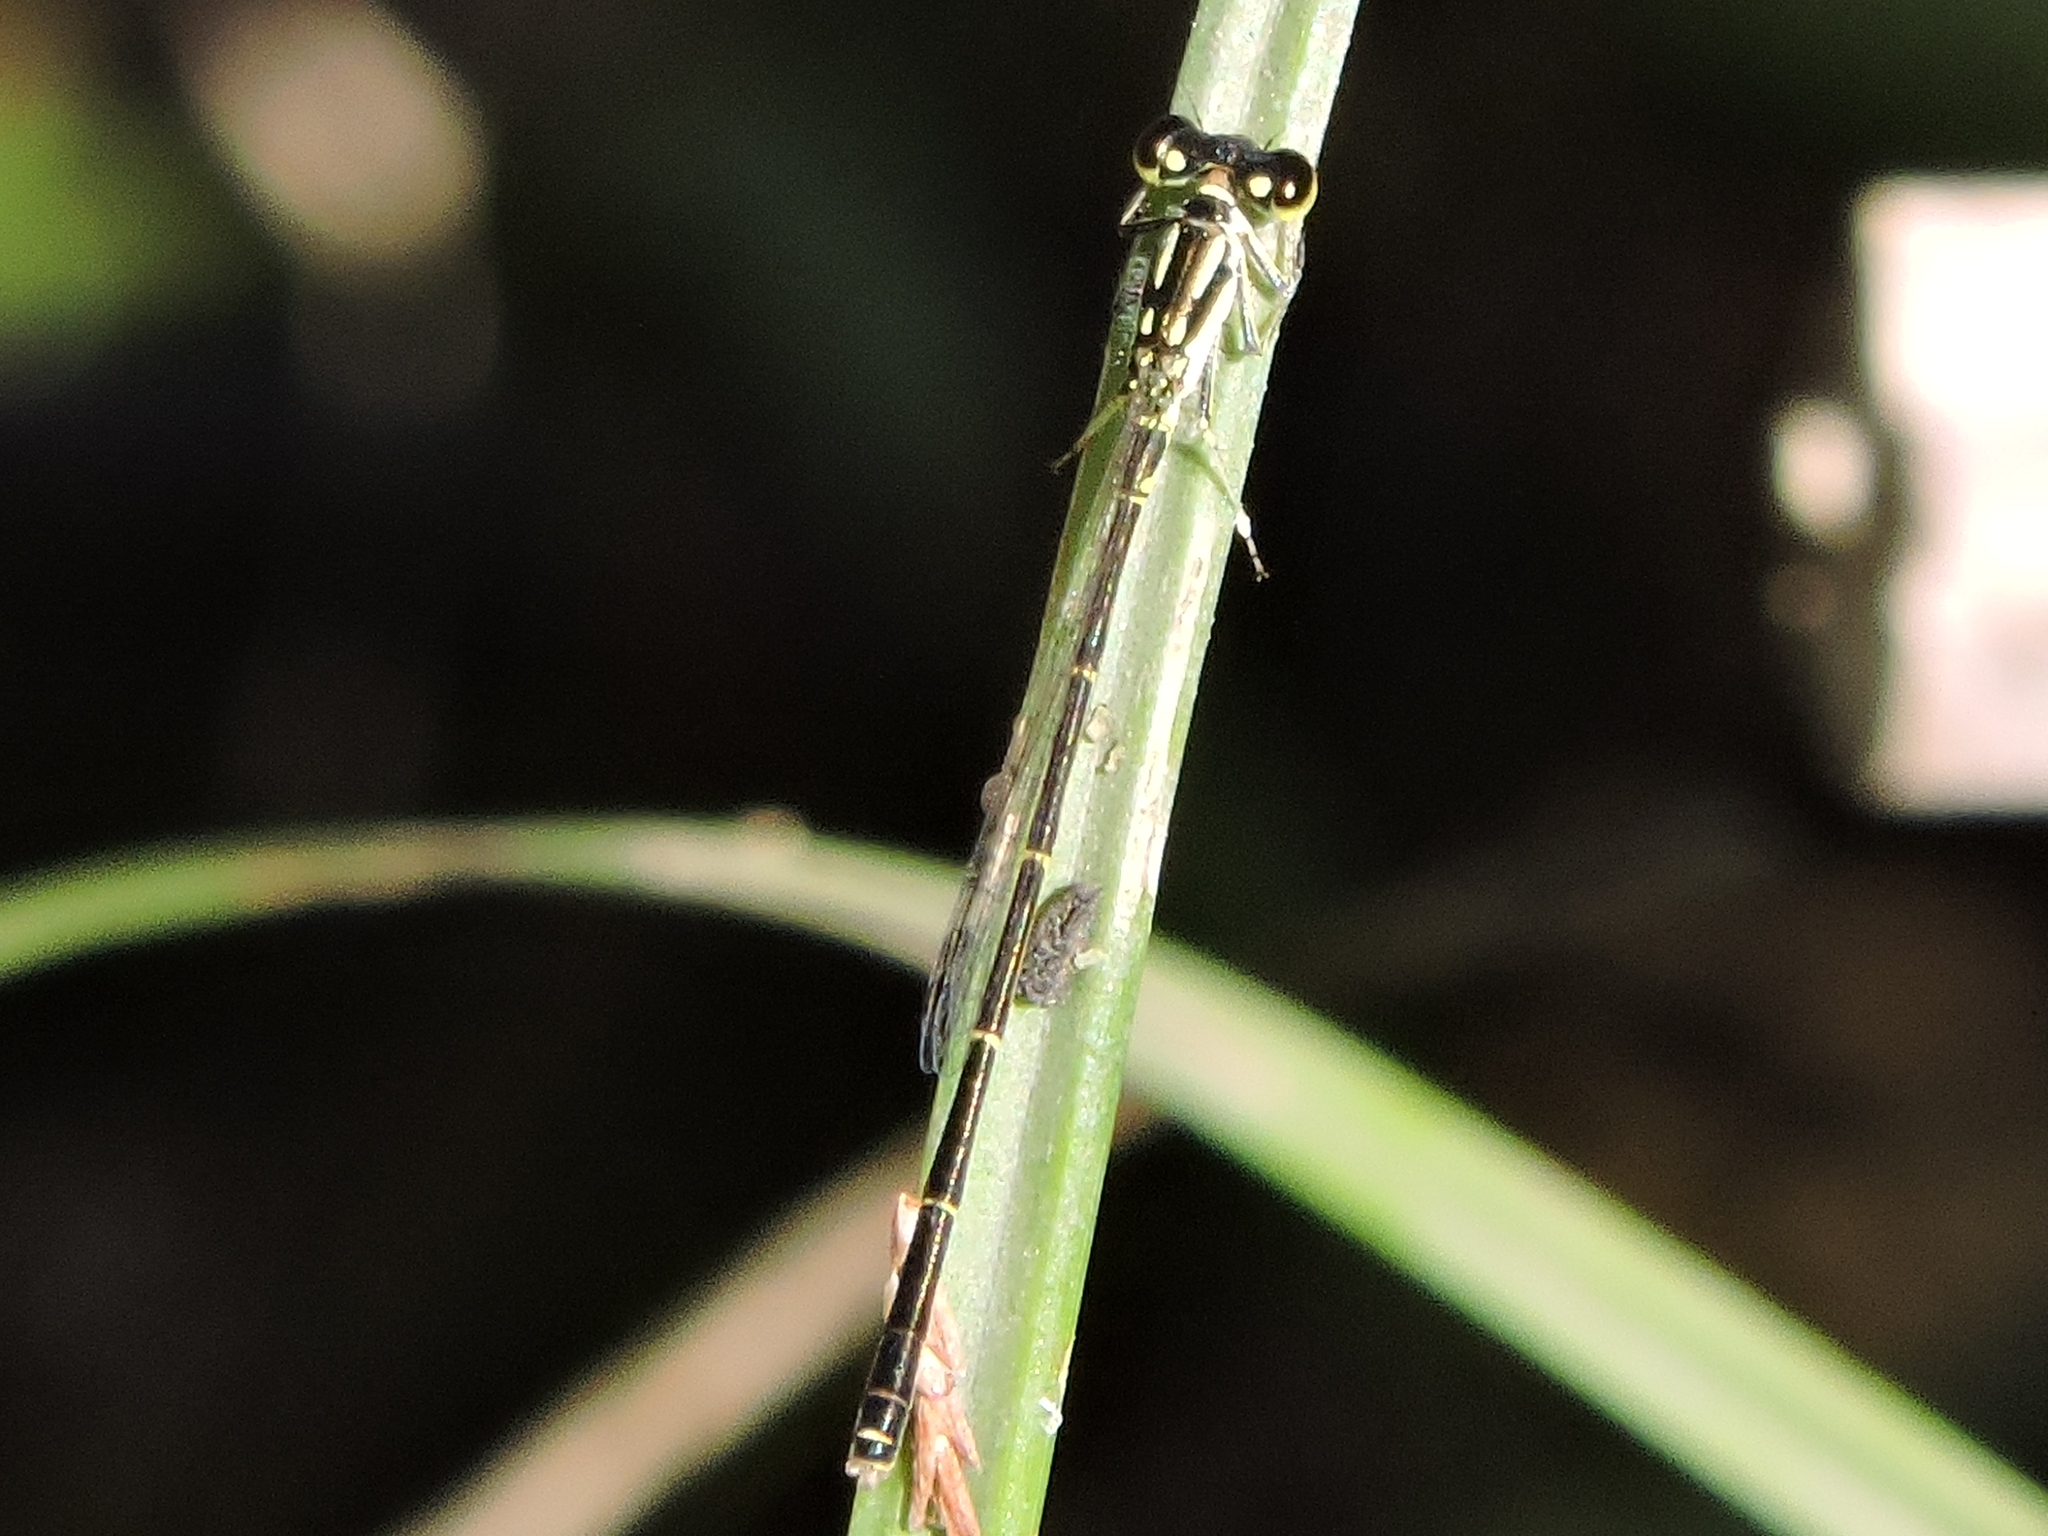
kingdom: Animalia
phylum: Arthropoda
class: Insecta
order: Odonata
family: Coenagrionidae
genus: Ischnura
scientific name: Ischnura posita
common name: Fragile forktail
